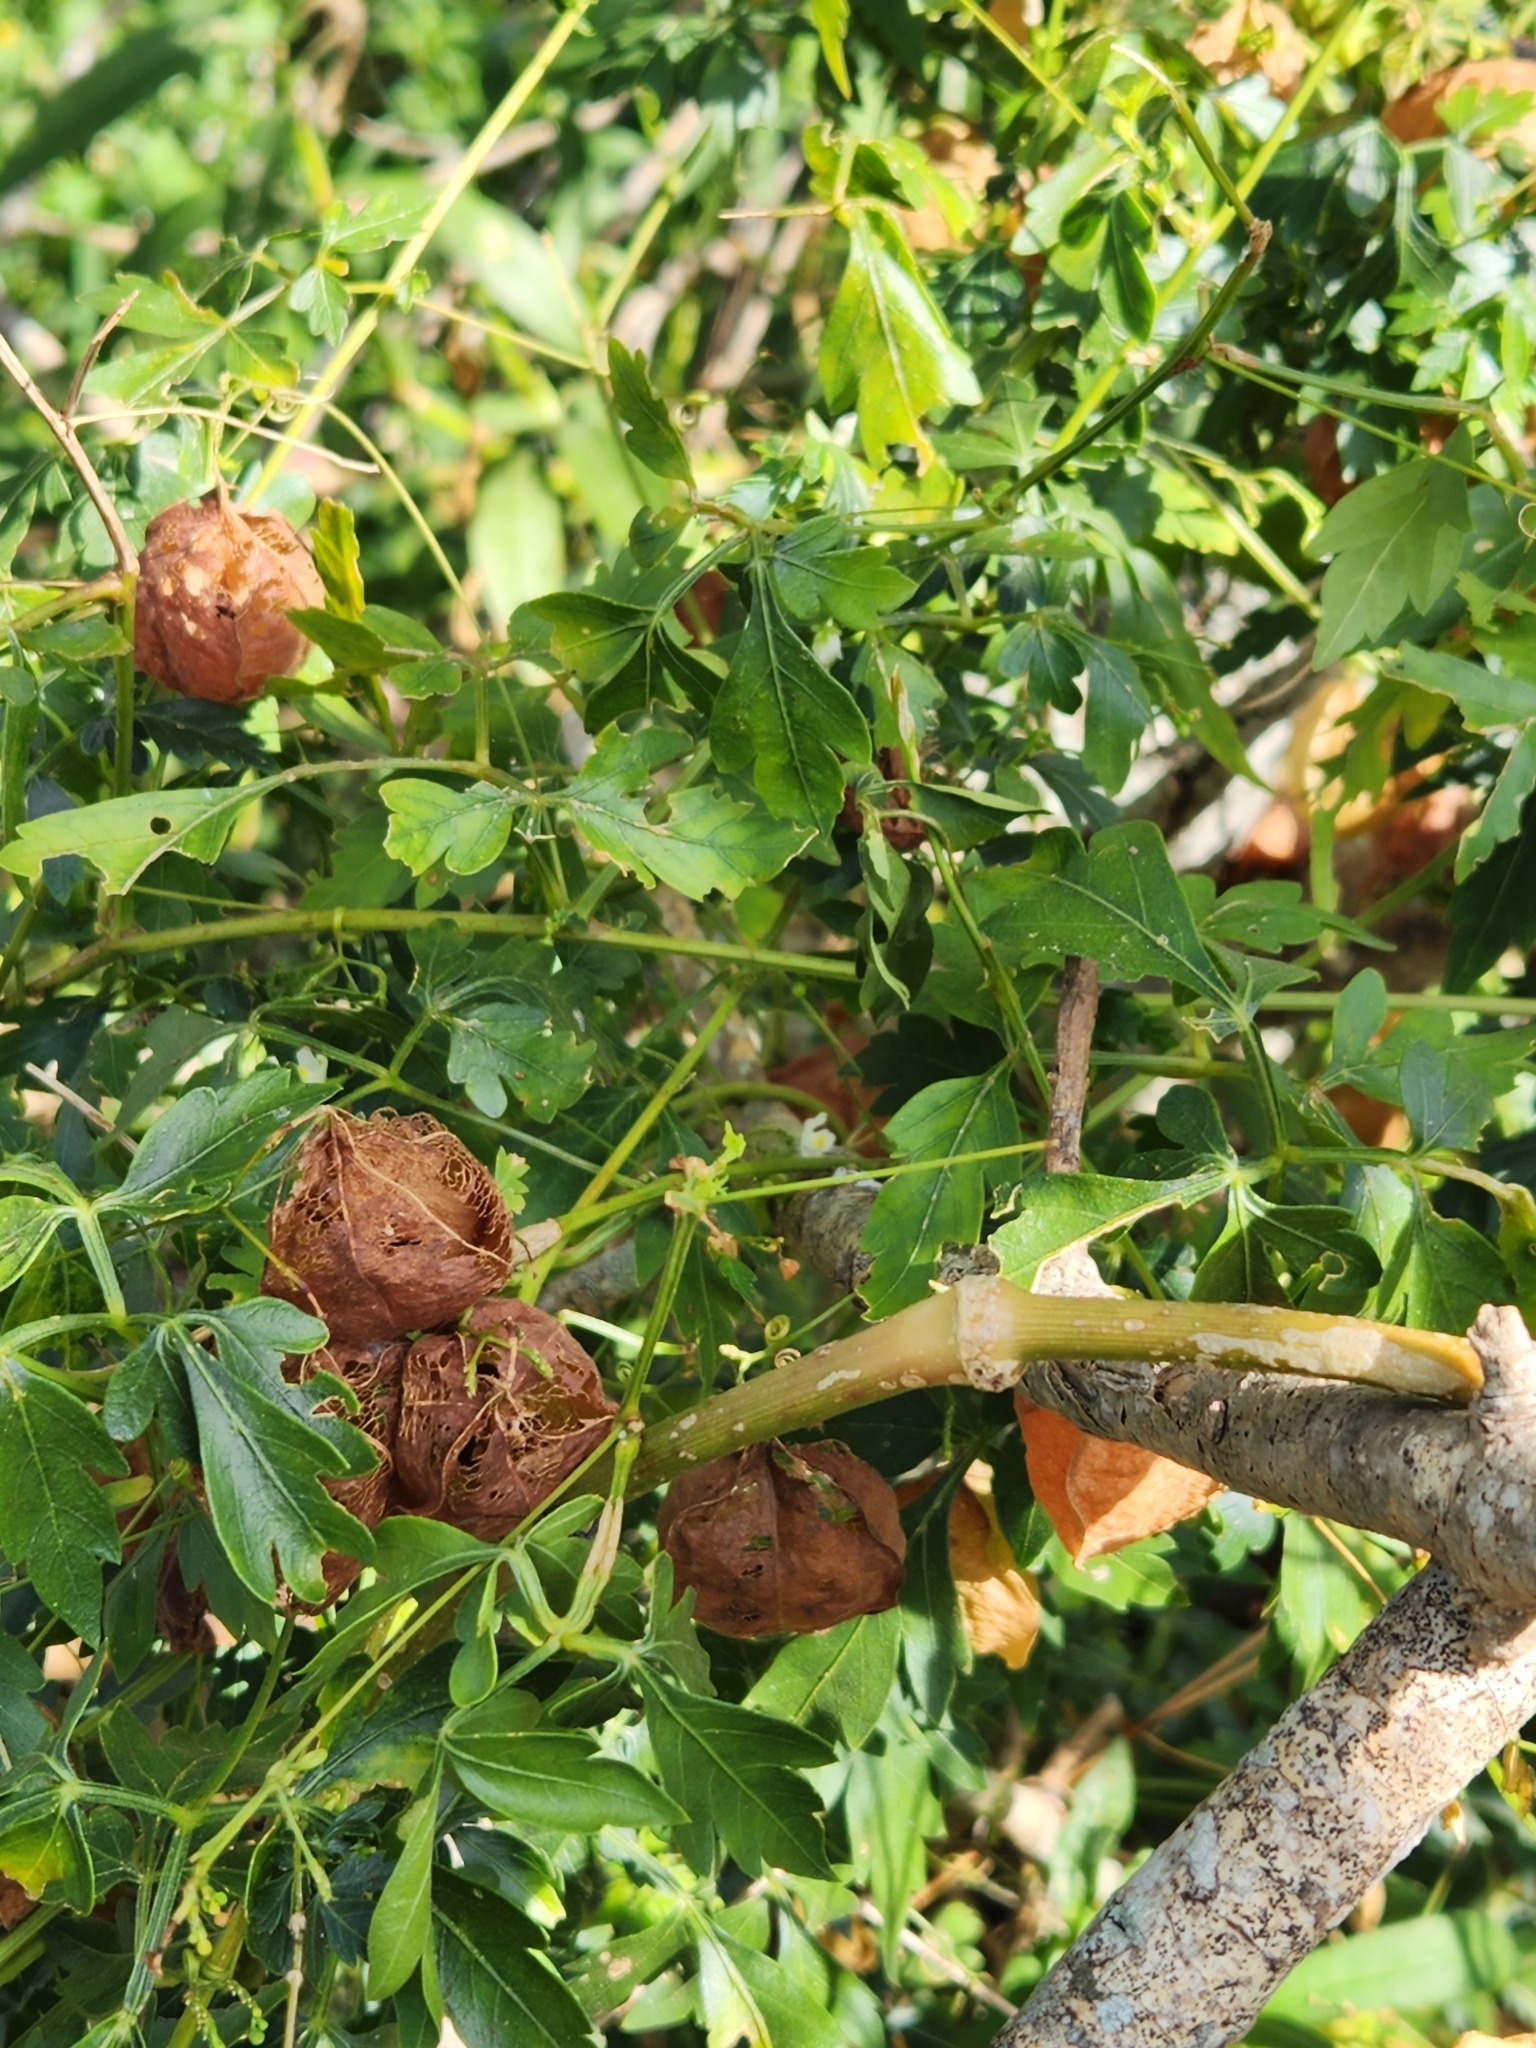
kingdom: Plantae
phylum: Tracheophyta
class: Magnoliopsida
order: Sapindales
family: Sapindaceae
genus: Cardiospermum
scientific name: Cardiospermum halicacabum
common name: Balloon vine
